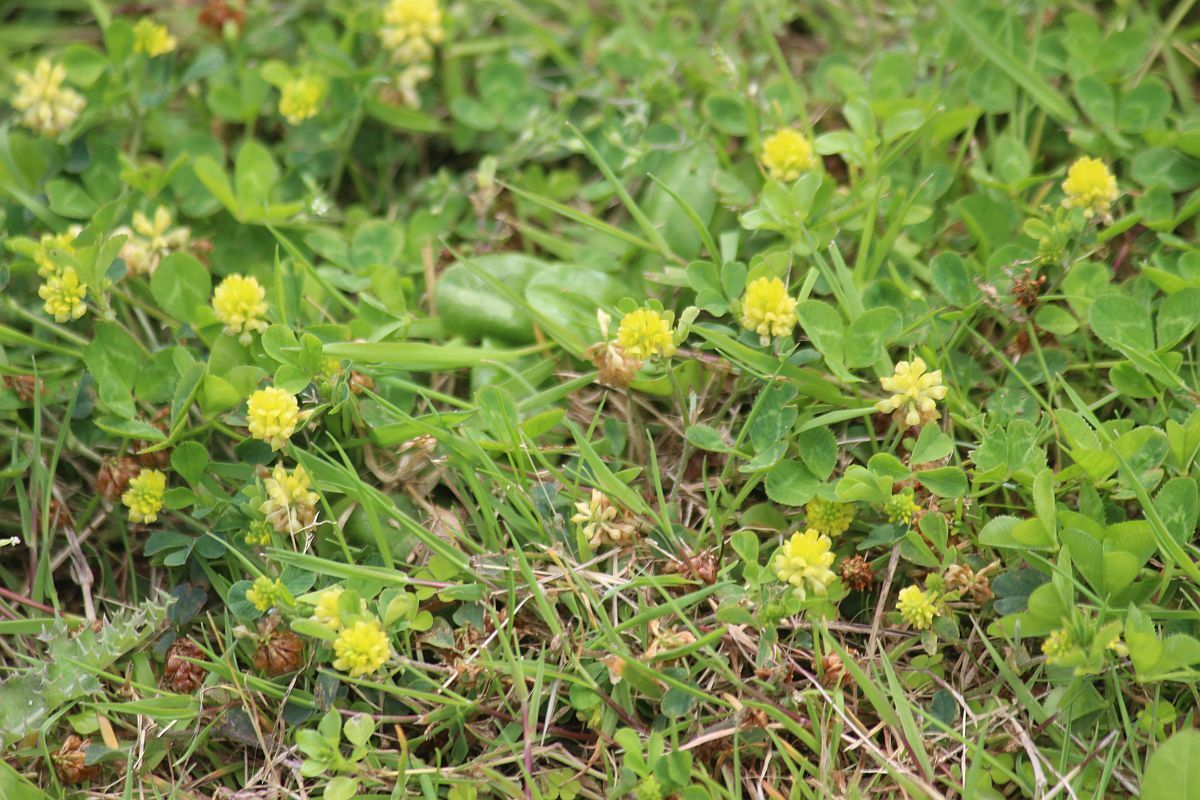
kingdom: Plantae
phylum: Tracheophyta
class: Magnoliopsida
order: Fabales
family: Fabaceae
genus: Trifolium
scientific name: Trifolium dubium
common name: Suckling clover
